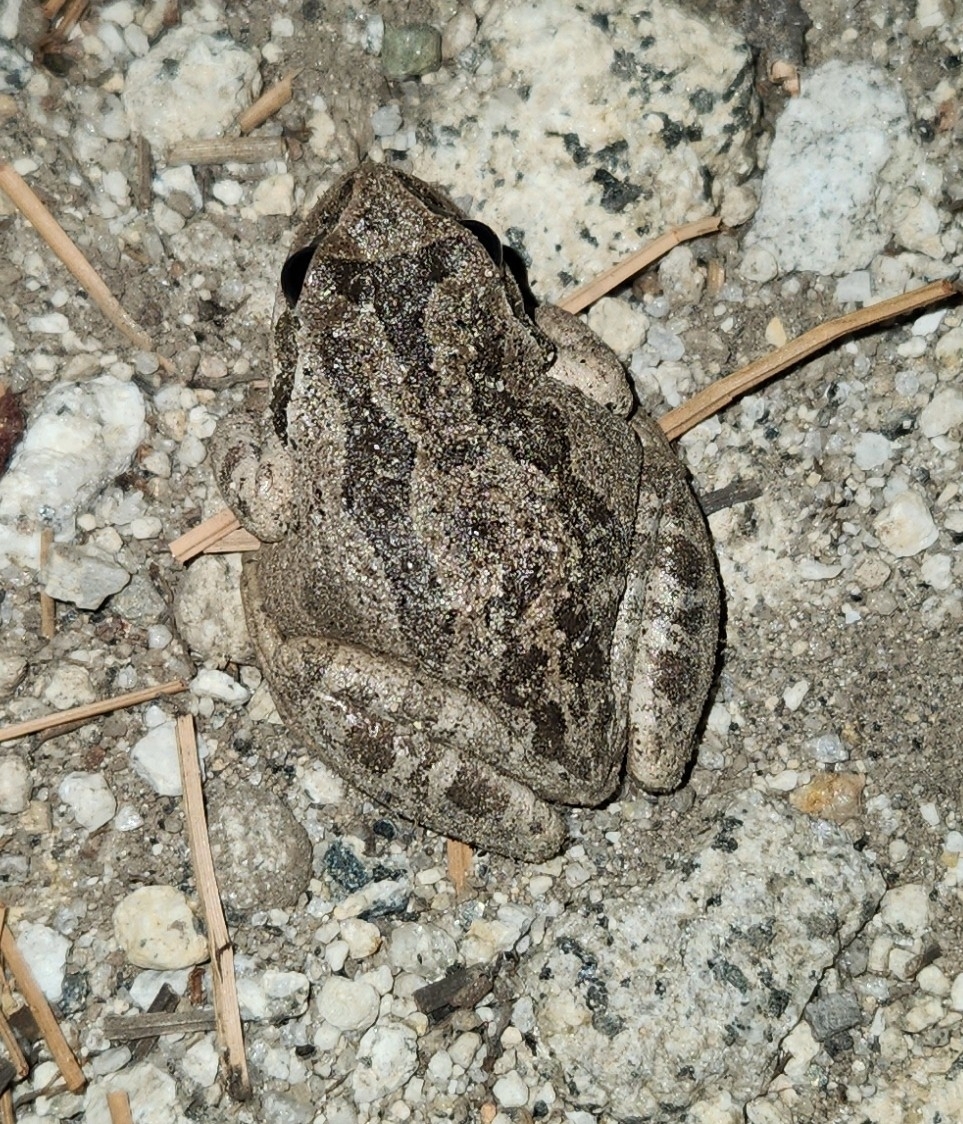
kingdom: Animalia
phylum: Chordata
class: Amphibia
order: Anura
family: Hylidae
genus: Pseudacris
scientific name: Pseudacris regilla
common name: Pacific chorus frog
